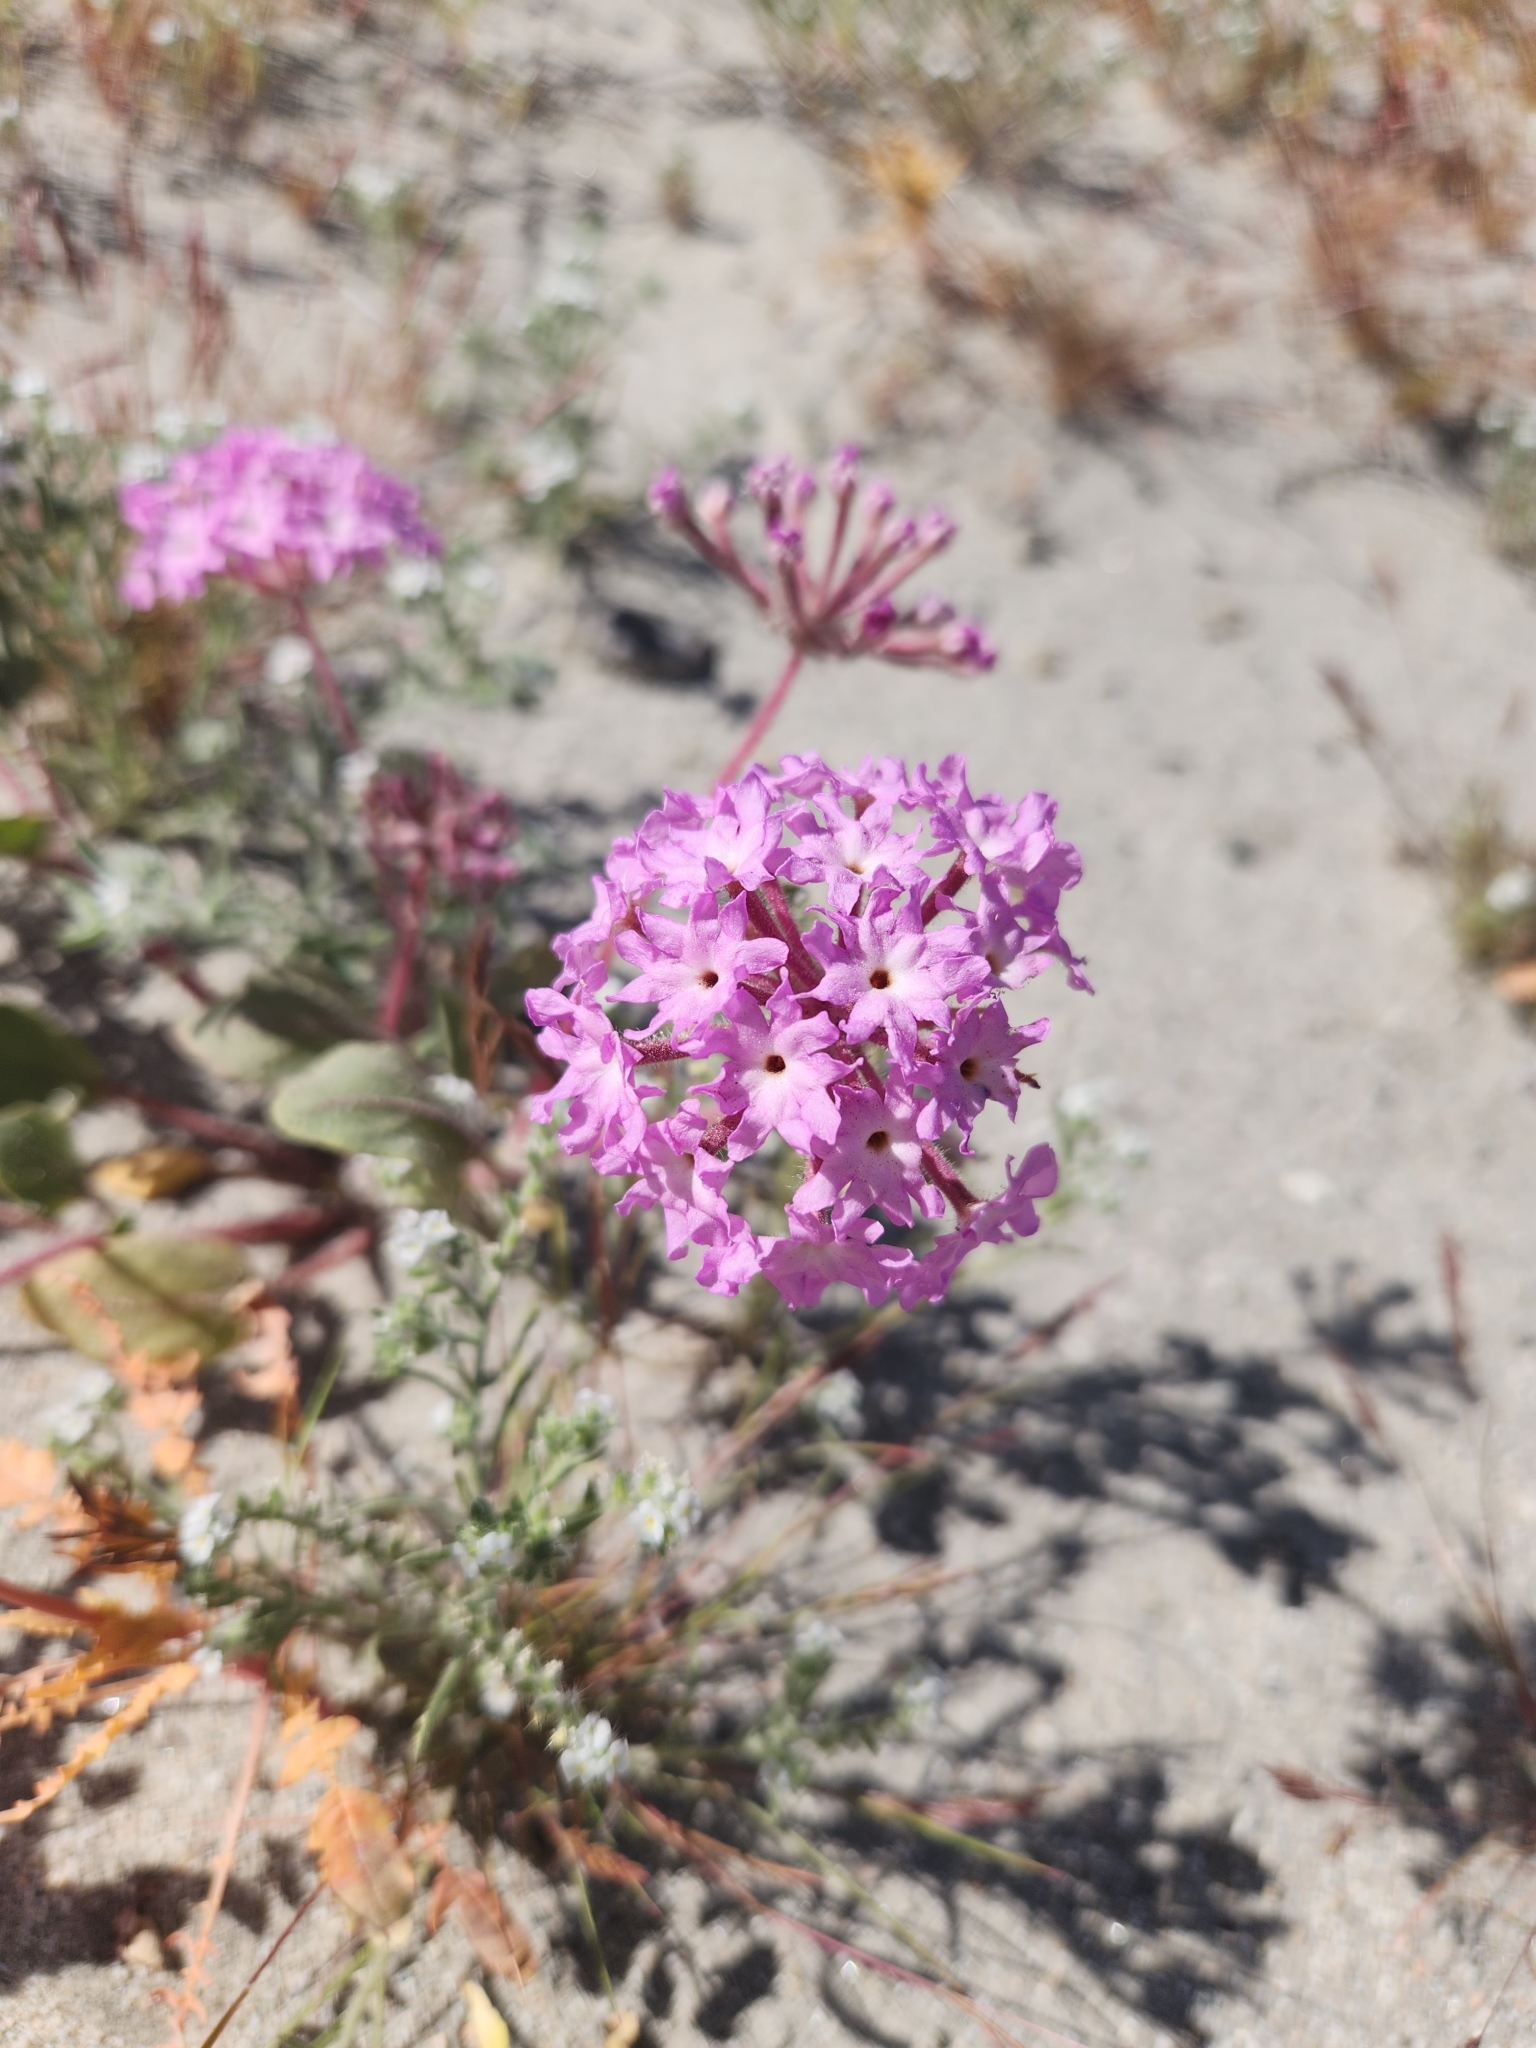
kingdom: Plantae
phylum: Tracheophyta
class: Magnoliopsida
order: Caryophyllales
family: Nyctaginaceae
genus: Abronia
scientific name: Abronia villosa
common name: Desert sand-verbena
